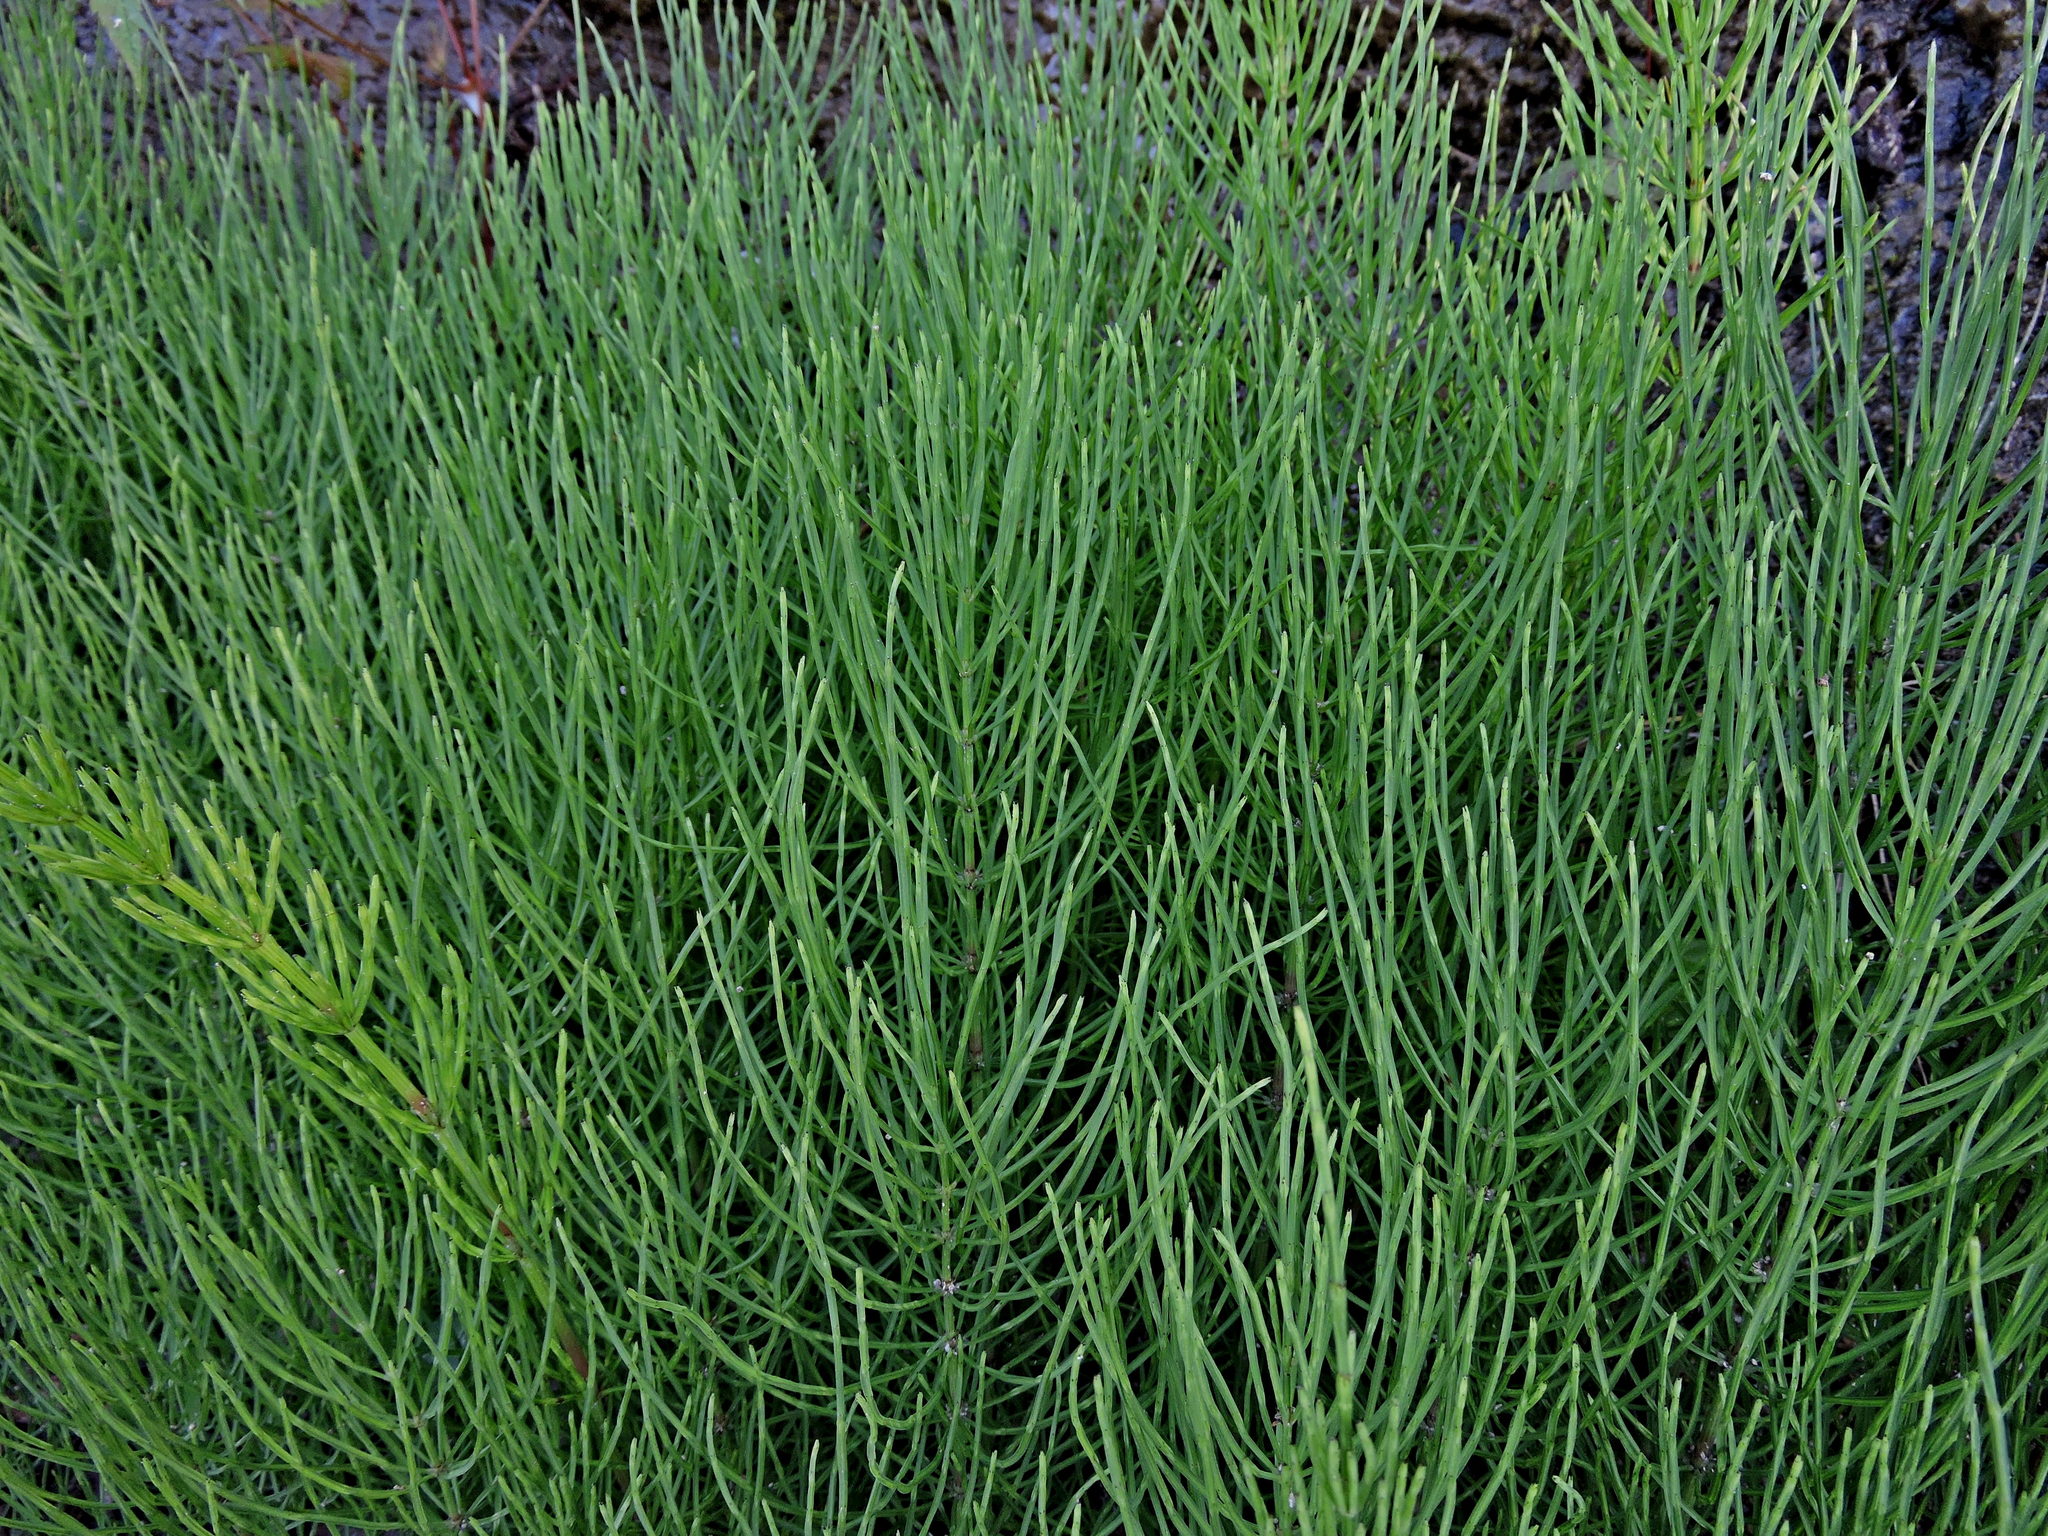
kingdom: Plantae
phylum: Tracheophyta
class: Polypodiopsida
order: Equisetales
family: Equisetaceae
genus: Equisetum
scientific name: Equisetum arvense
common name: Field horsetail
